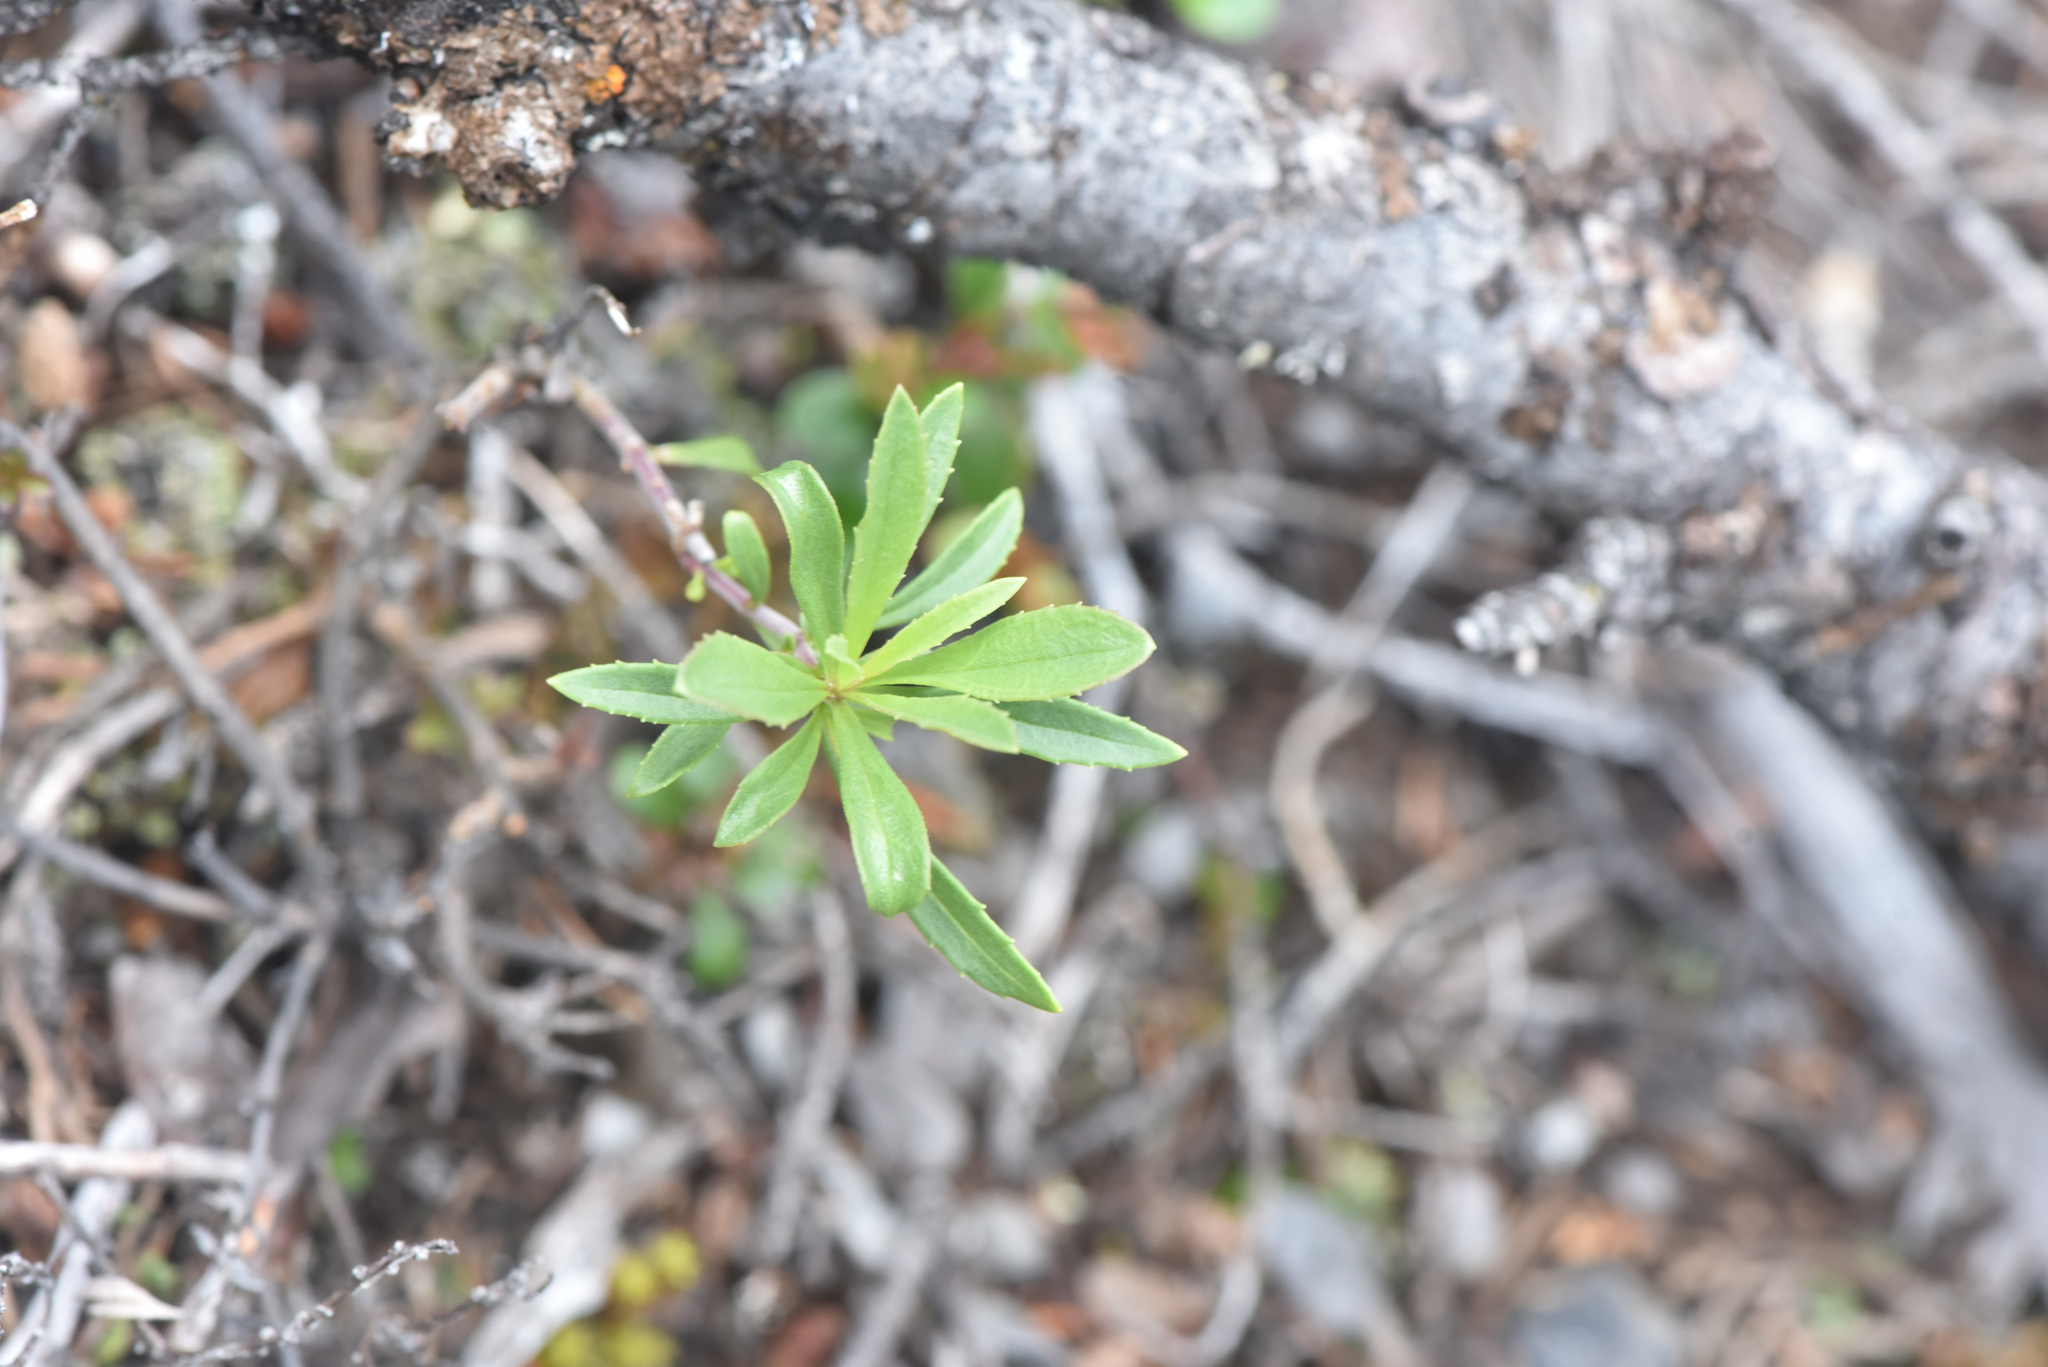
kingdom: Plantae
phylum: Tracheophyta
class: Magnoliopsida
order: Lamiales
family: Plantaginaceae
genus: Penstemon
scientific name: Penstemon fruticosus
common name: Bush penstemon
